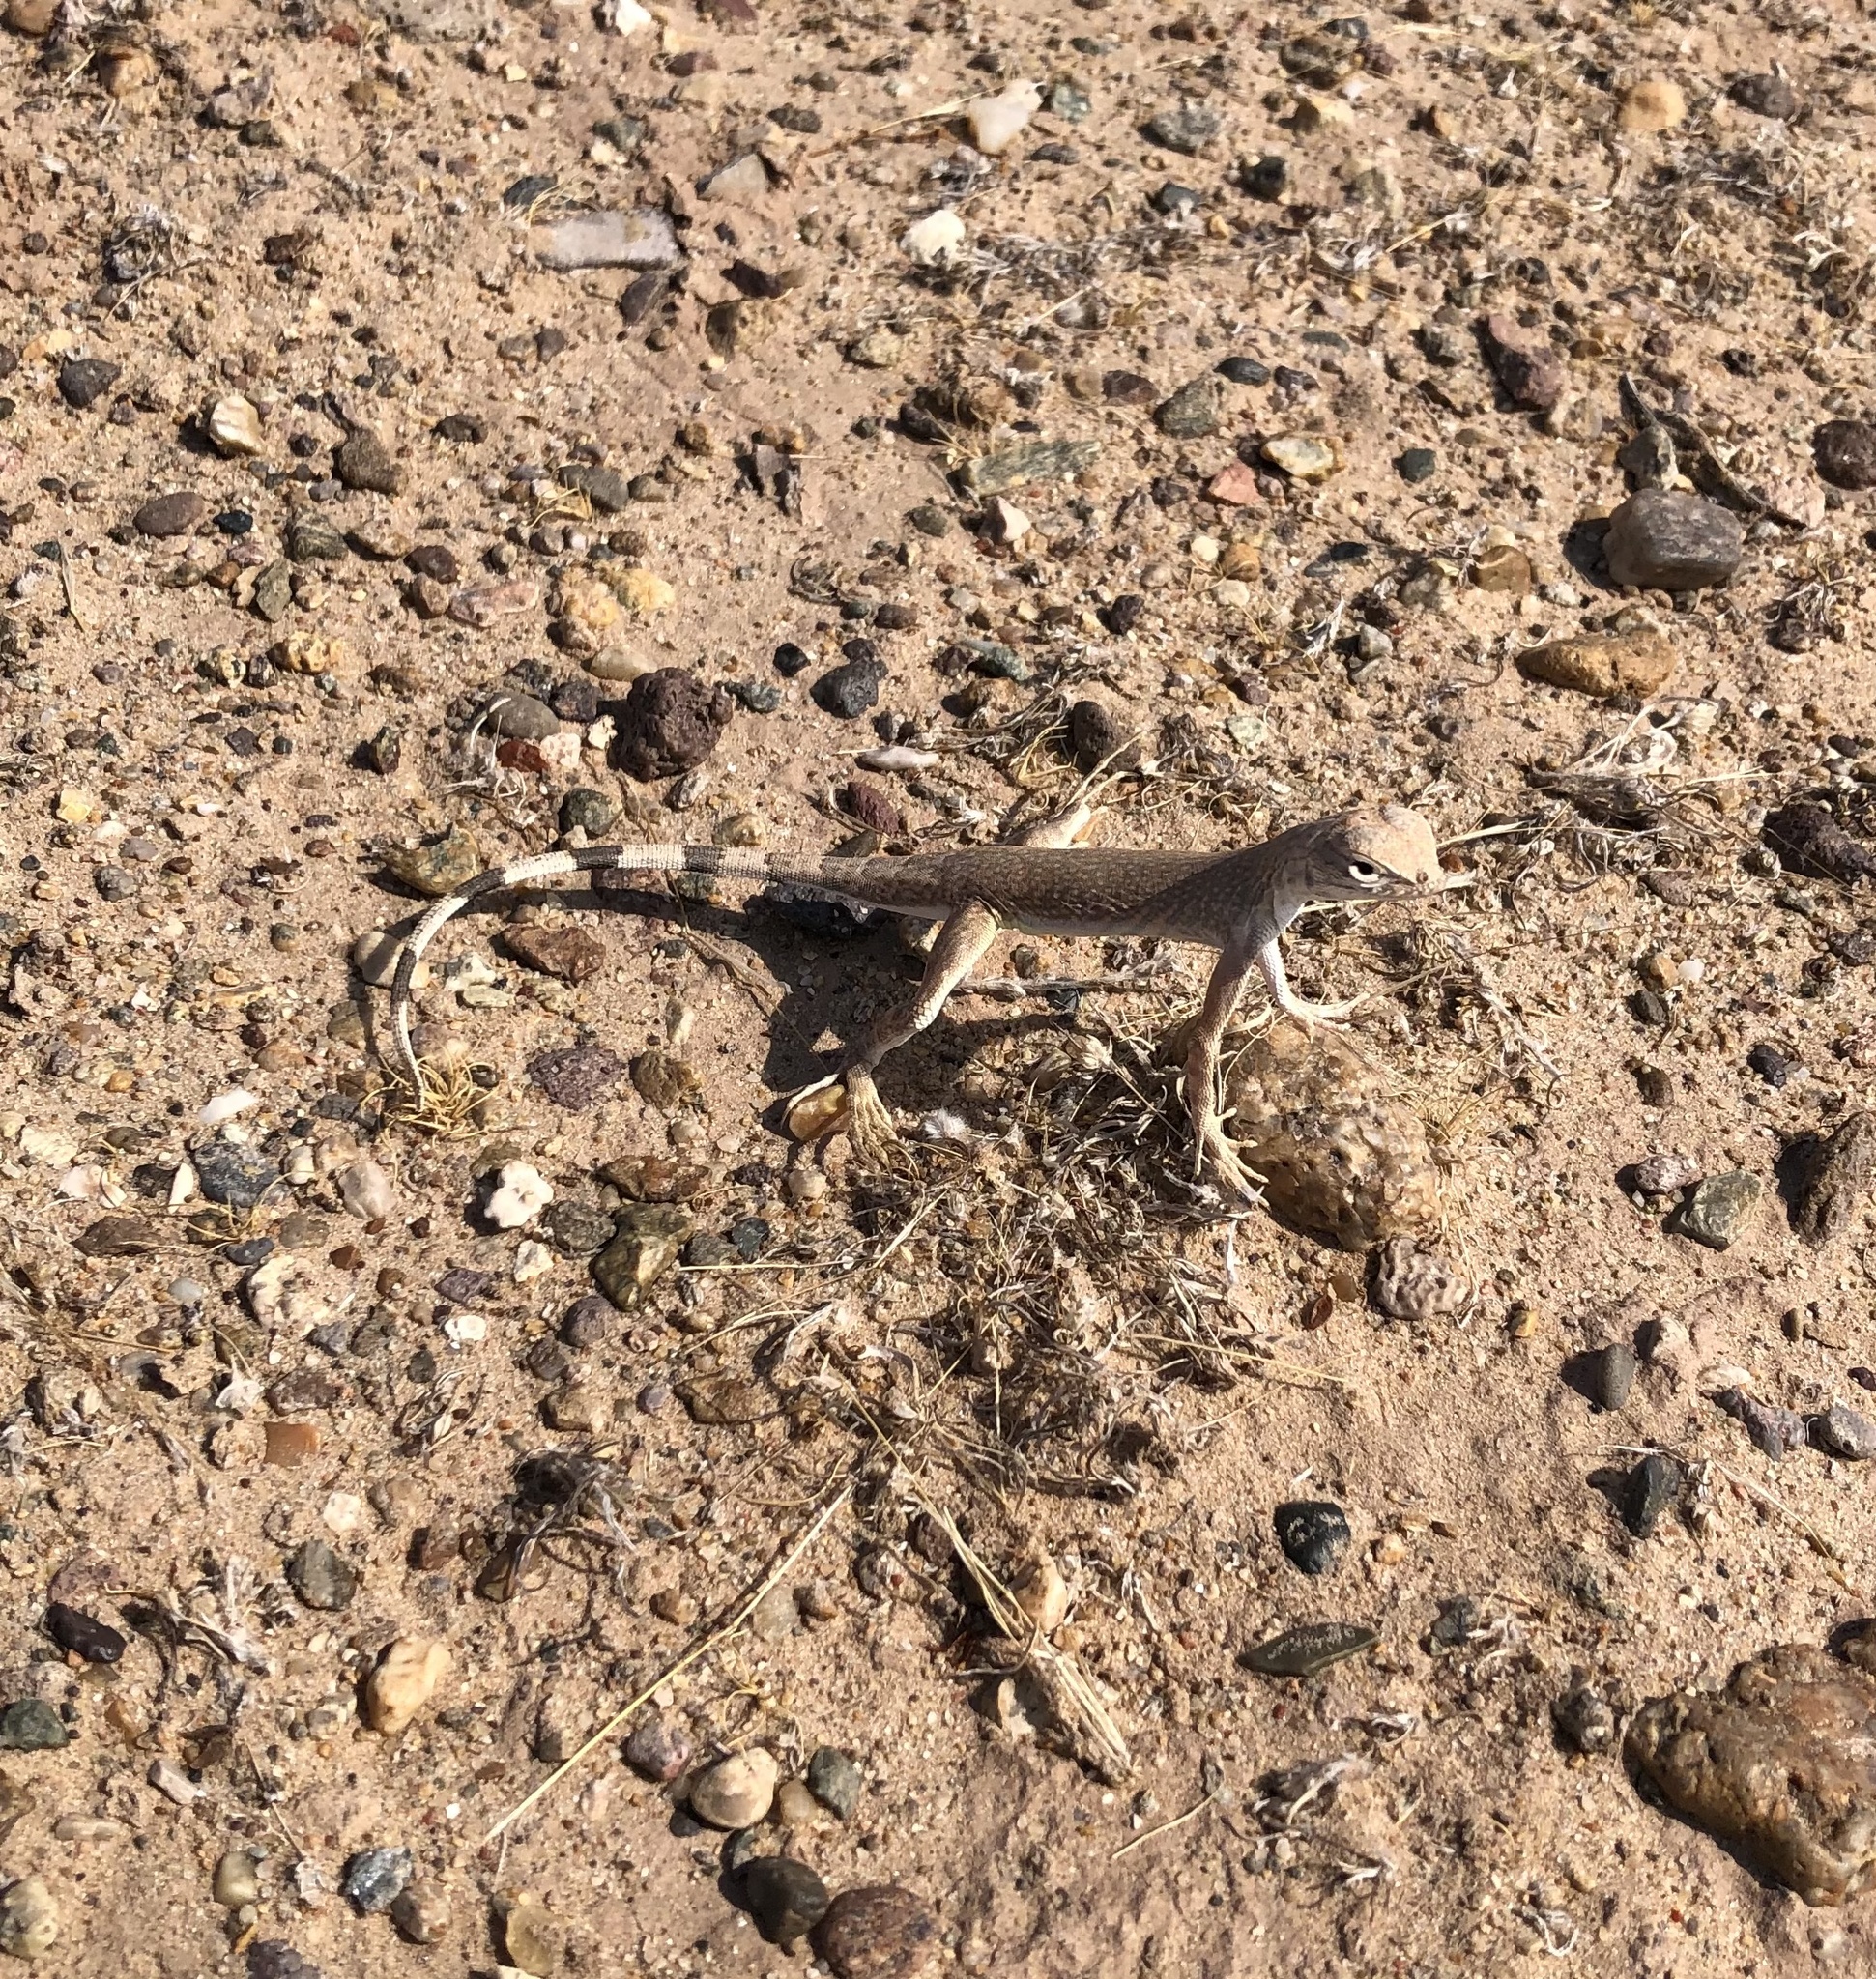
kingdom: Animalia
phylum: Chordata
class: Squamata
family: Phrynosomatidae
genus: Callisaurus
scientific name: Callisaurus draconoides
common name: Zebra-tailed lizard
